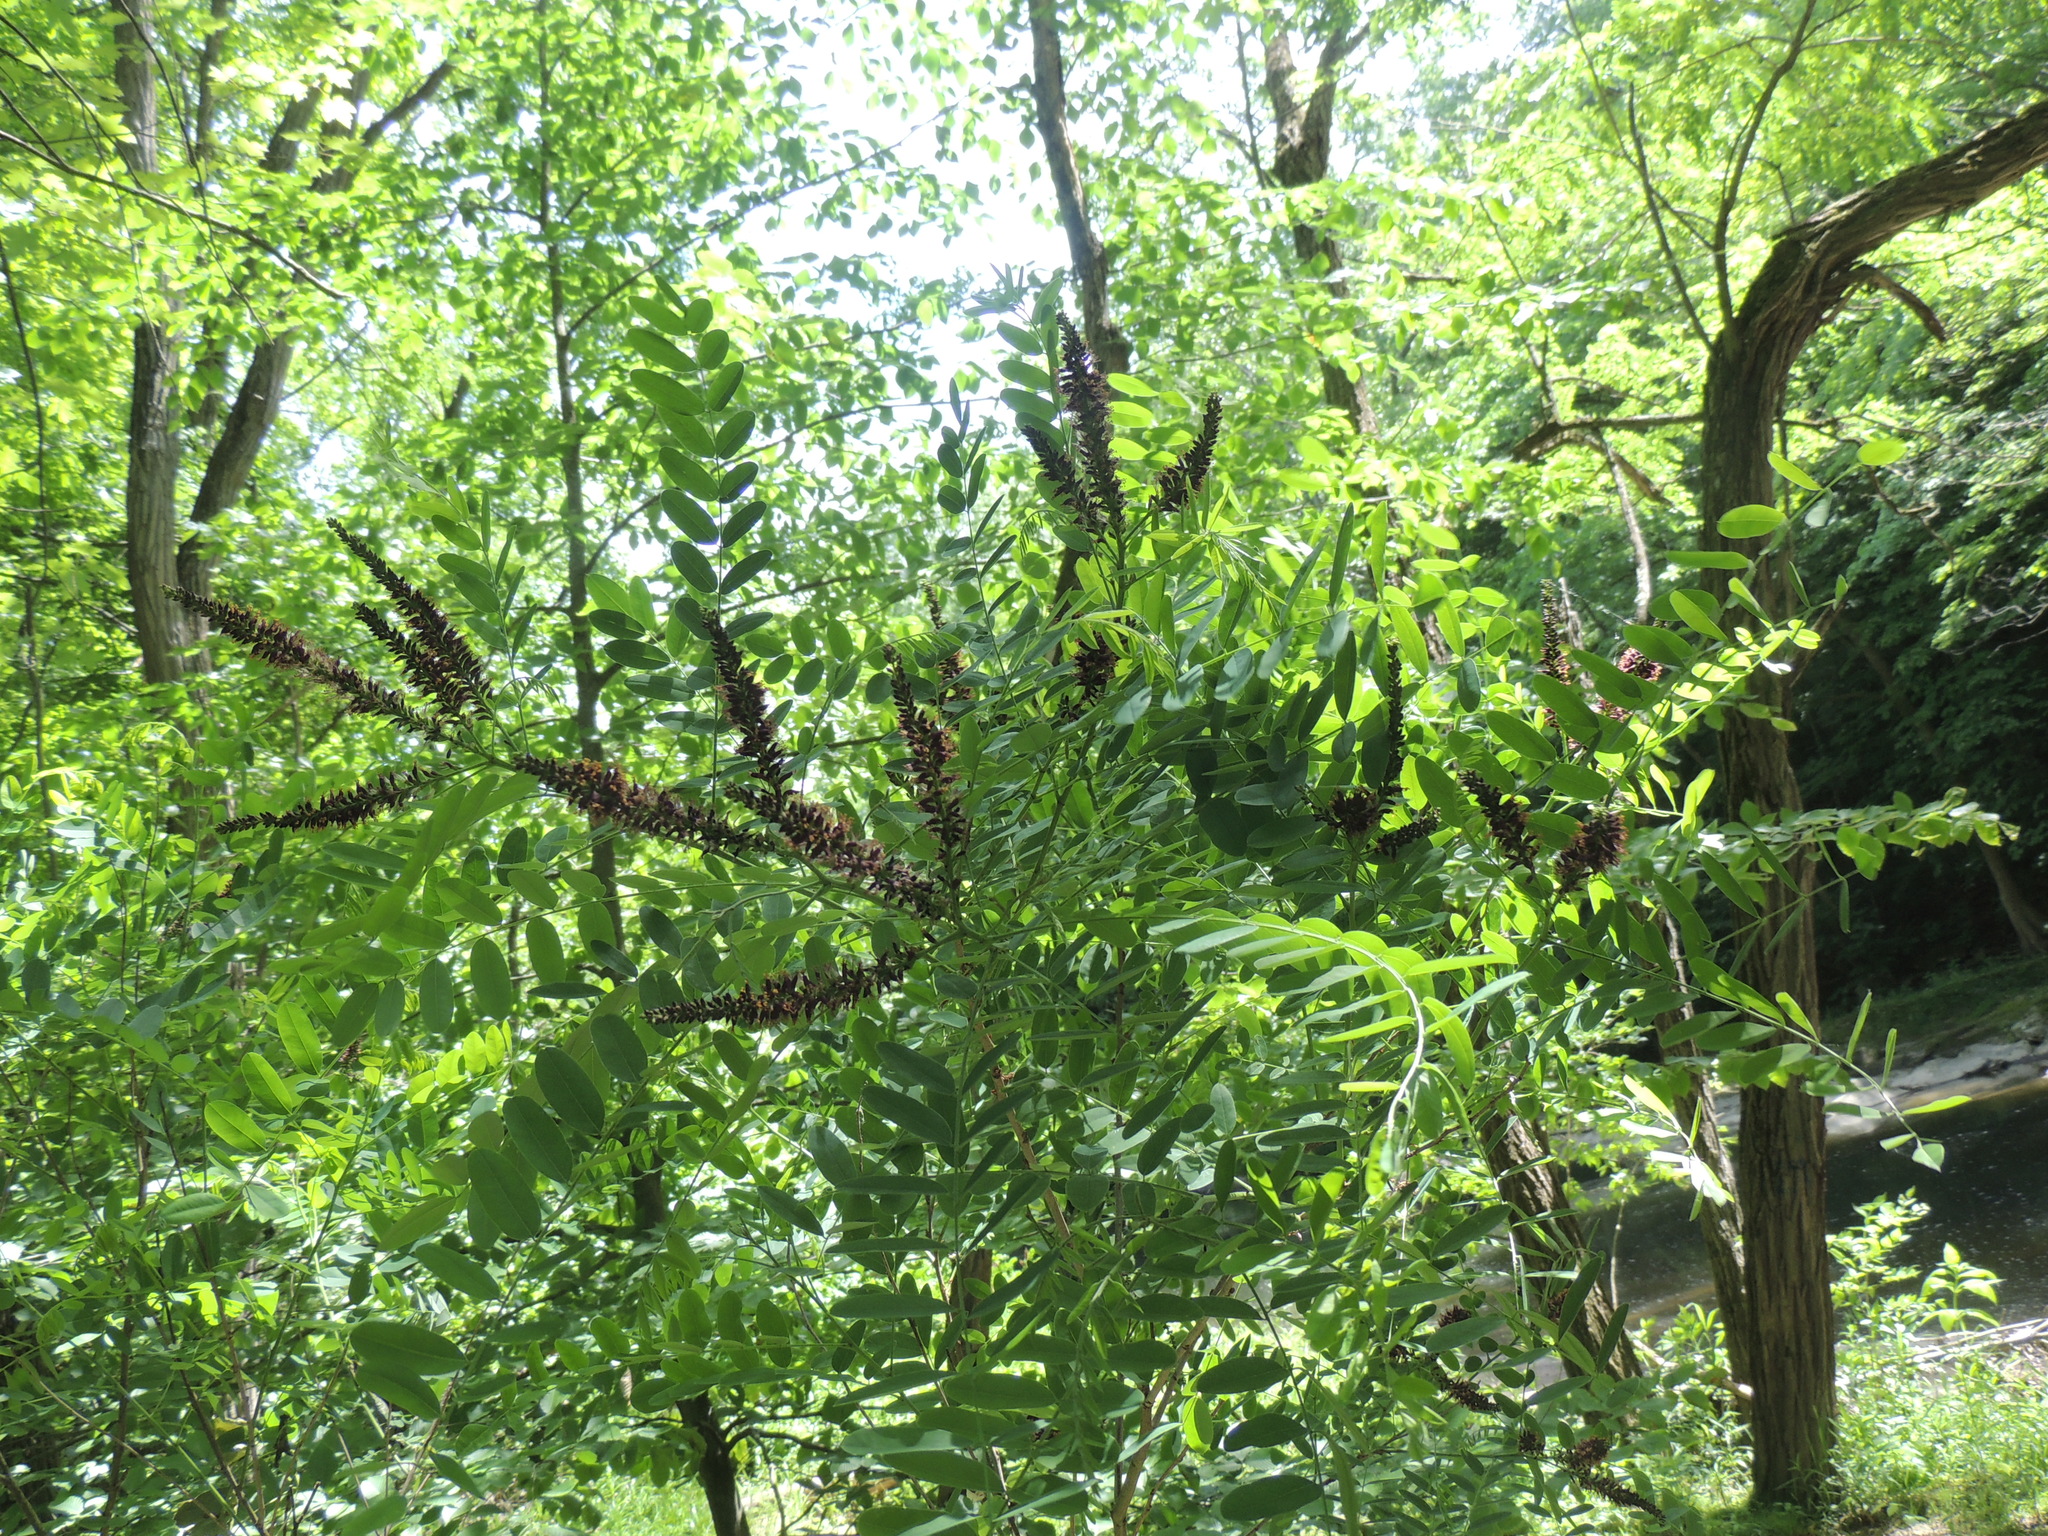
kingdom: Plantae
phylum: Tracheophyta
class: Magnoliopsida
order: Fabales
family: Fabaceae
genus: Amorpha
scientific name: Amorpha fruticosa
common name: False indigo
